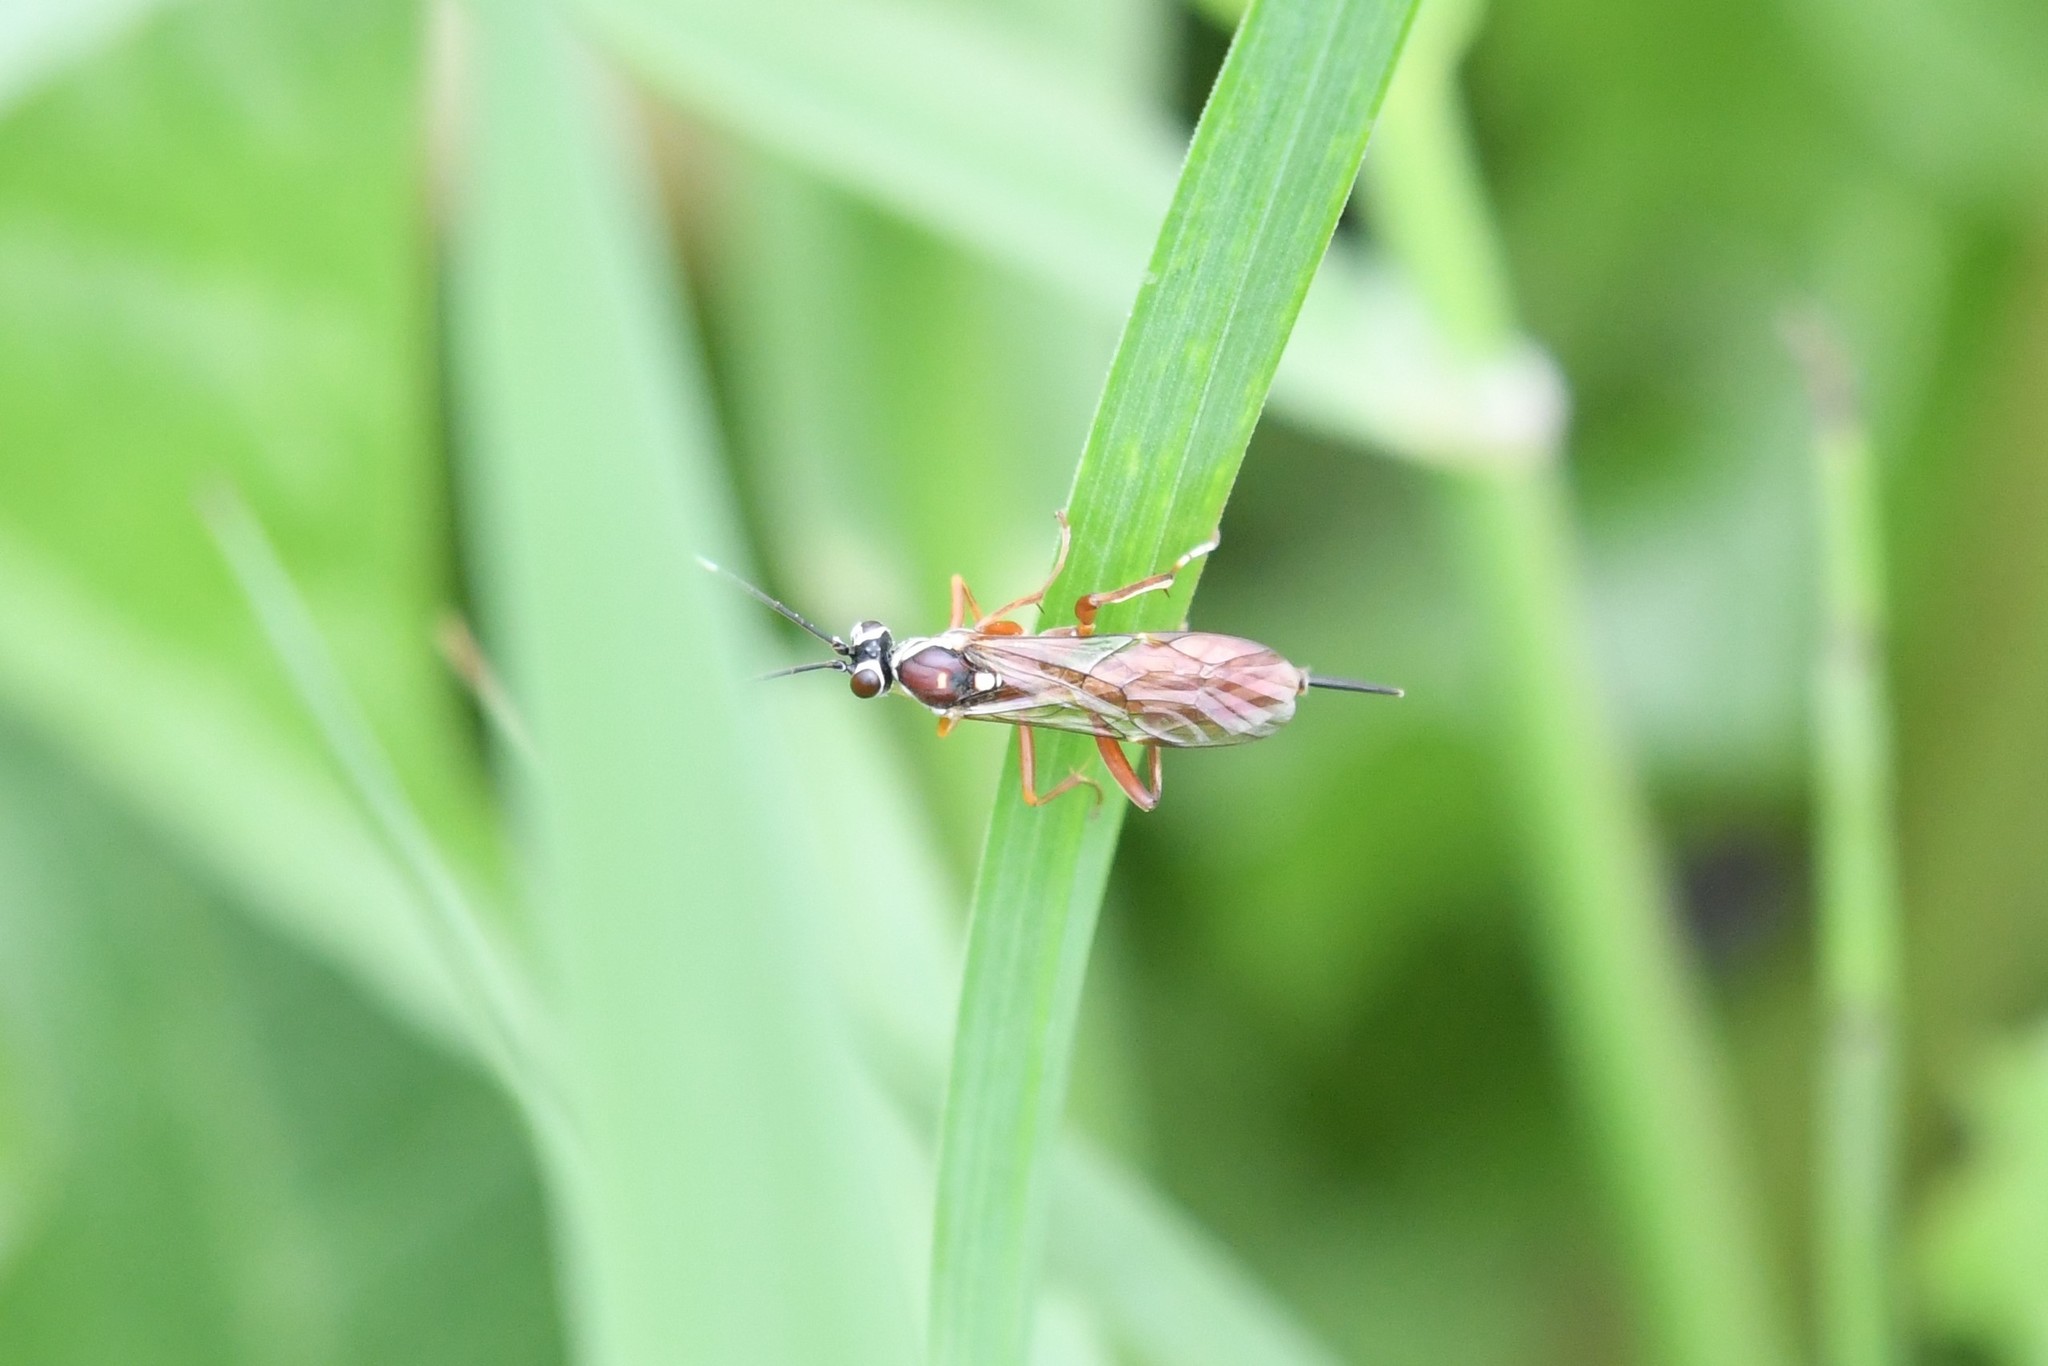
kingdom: Animalia
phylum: Arthropoda
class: Insecta
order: Hymenoptera
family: Ichneumonidae
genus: Ischnus
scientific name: Ischnus inquisitorius
